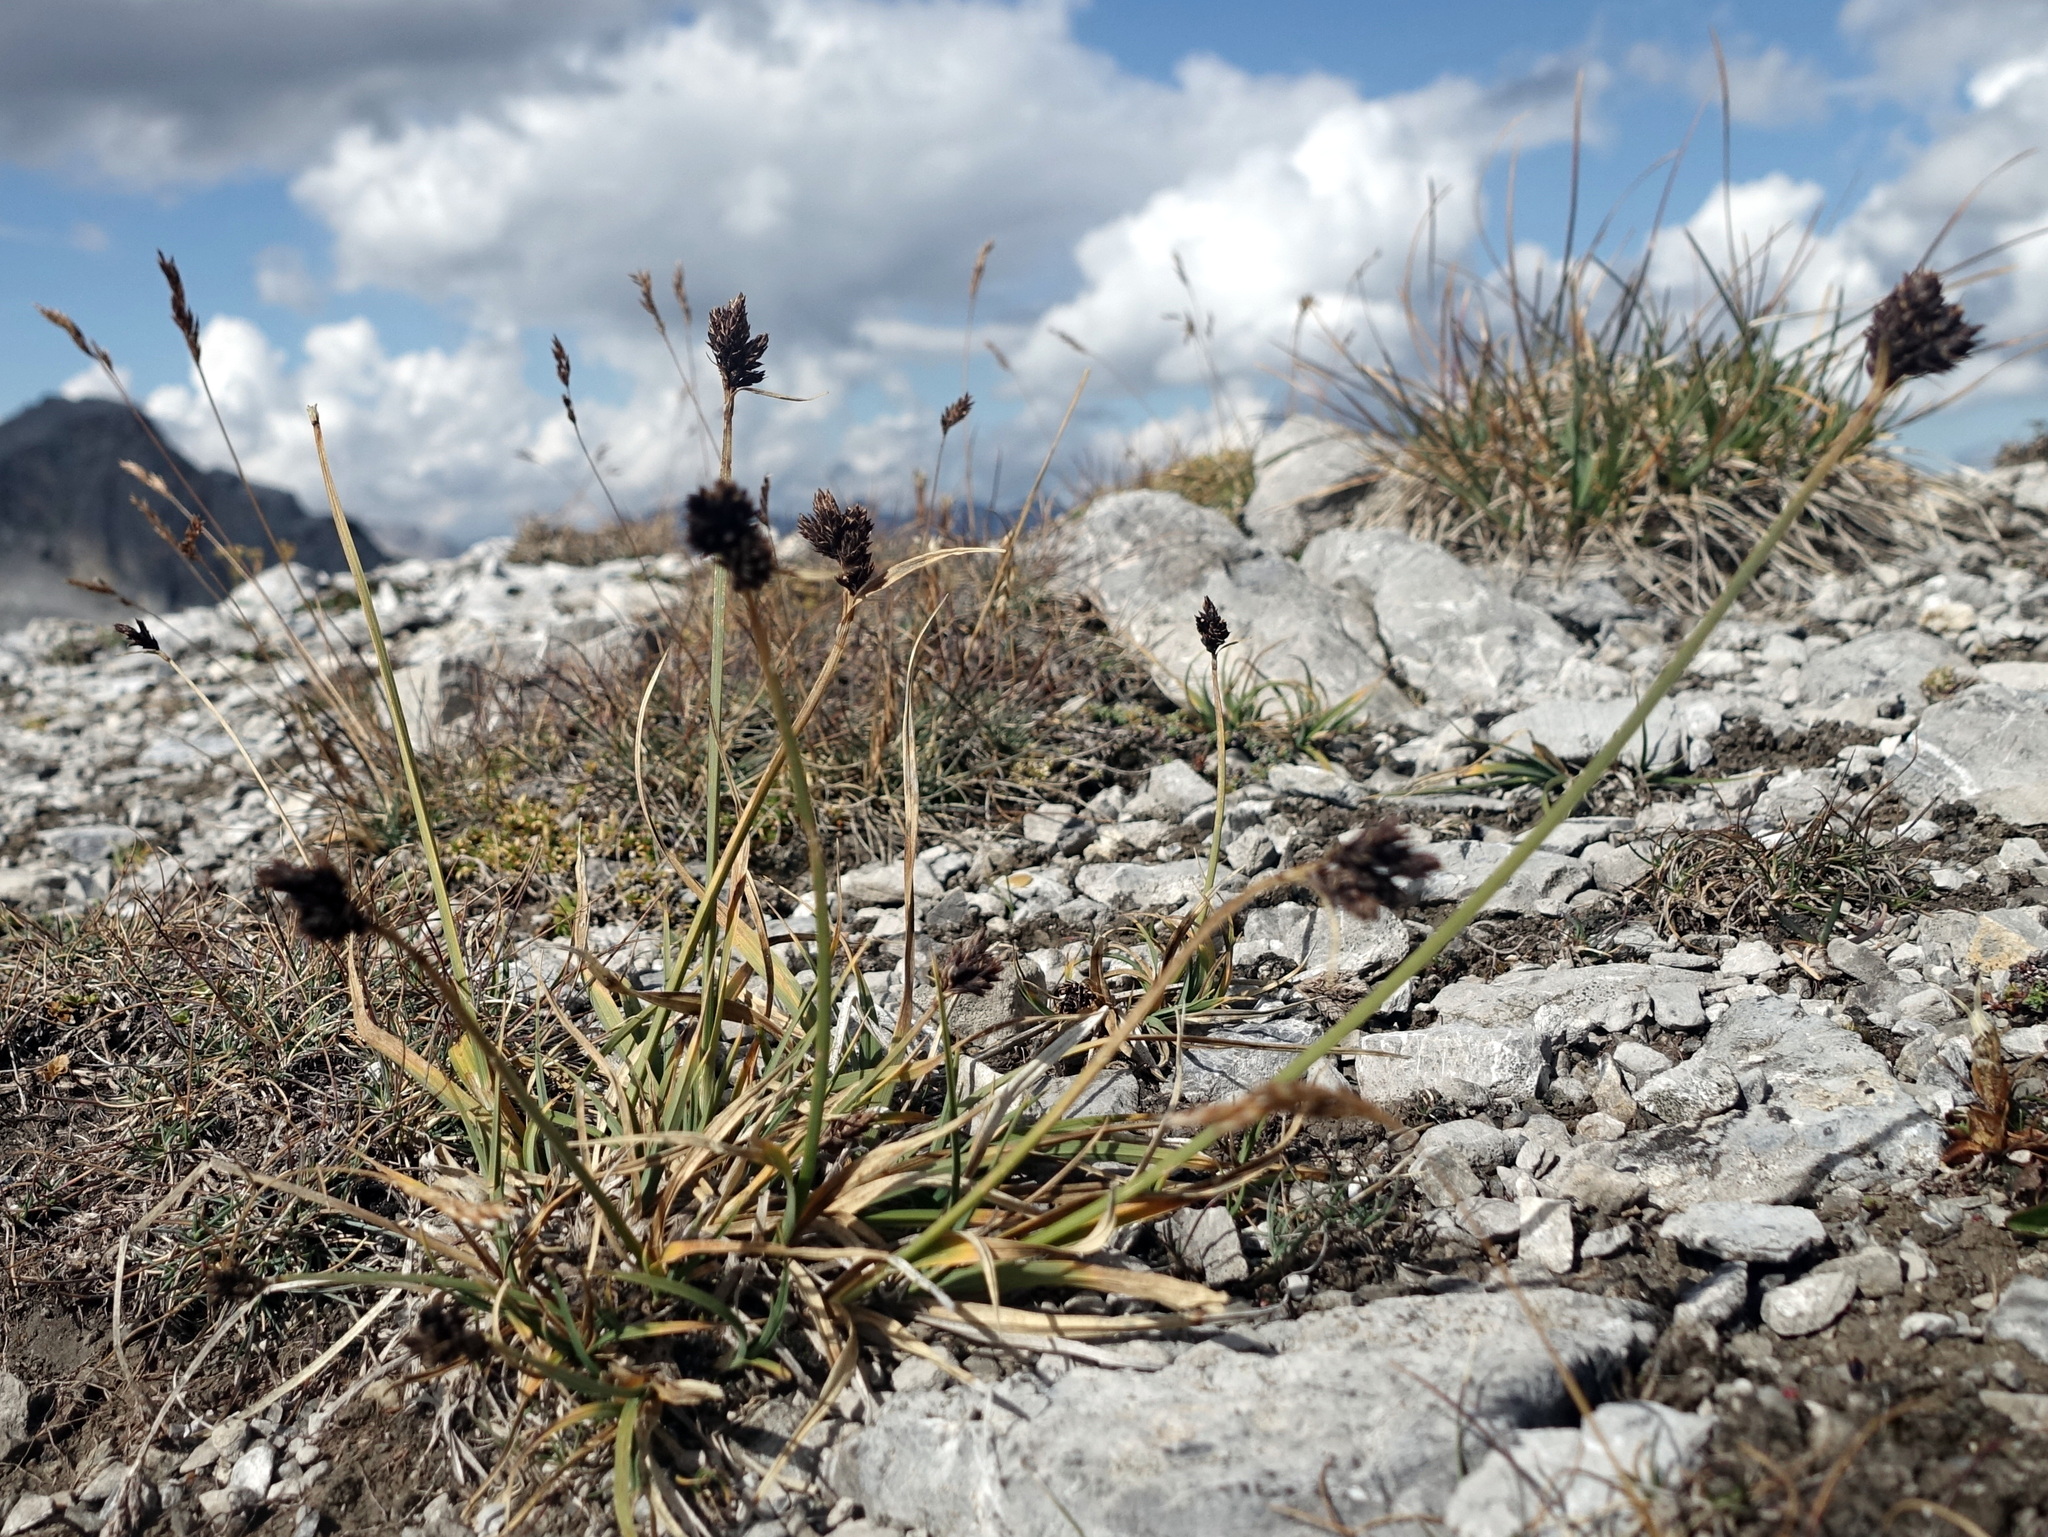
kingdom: Plantae
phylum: Tracheophyta
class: Liliopsida
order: Poales
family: Cyperaceae
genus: Carex
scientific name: Carex parviflora
